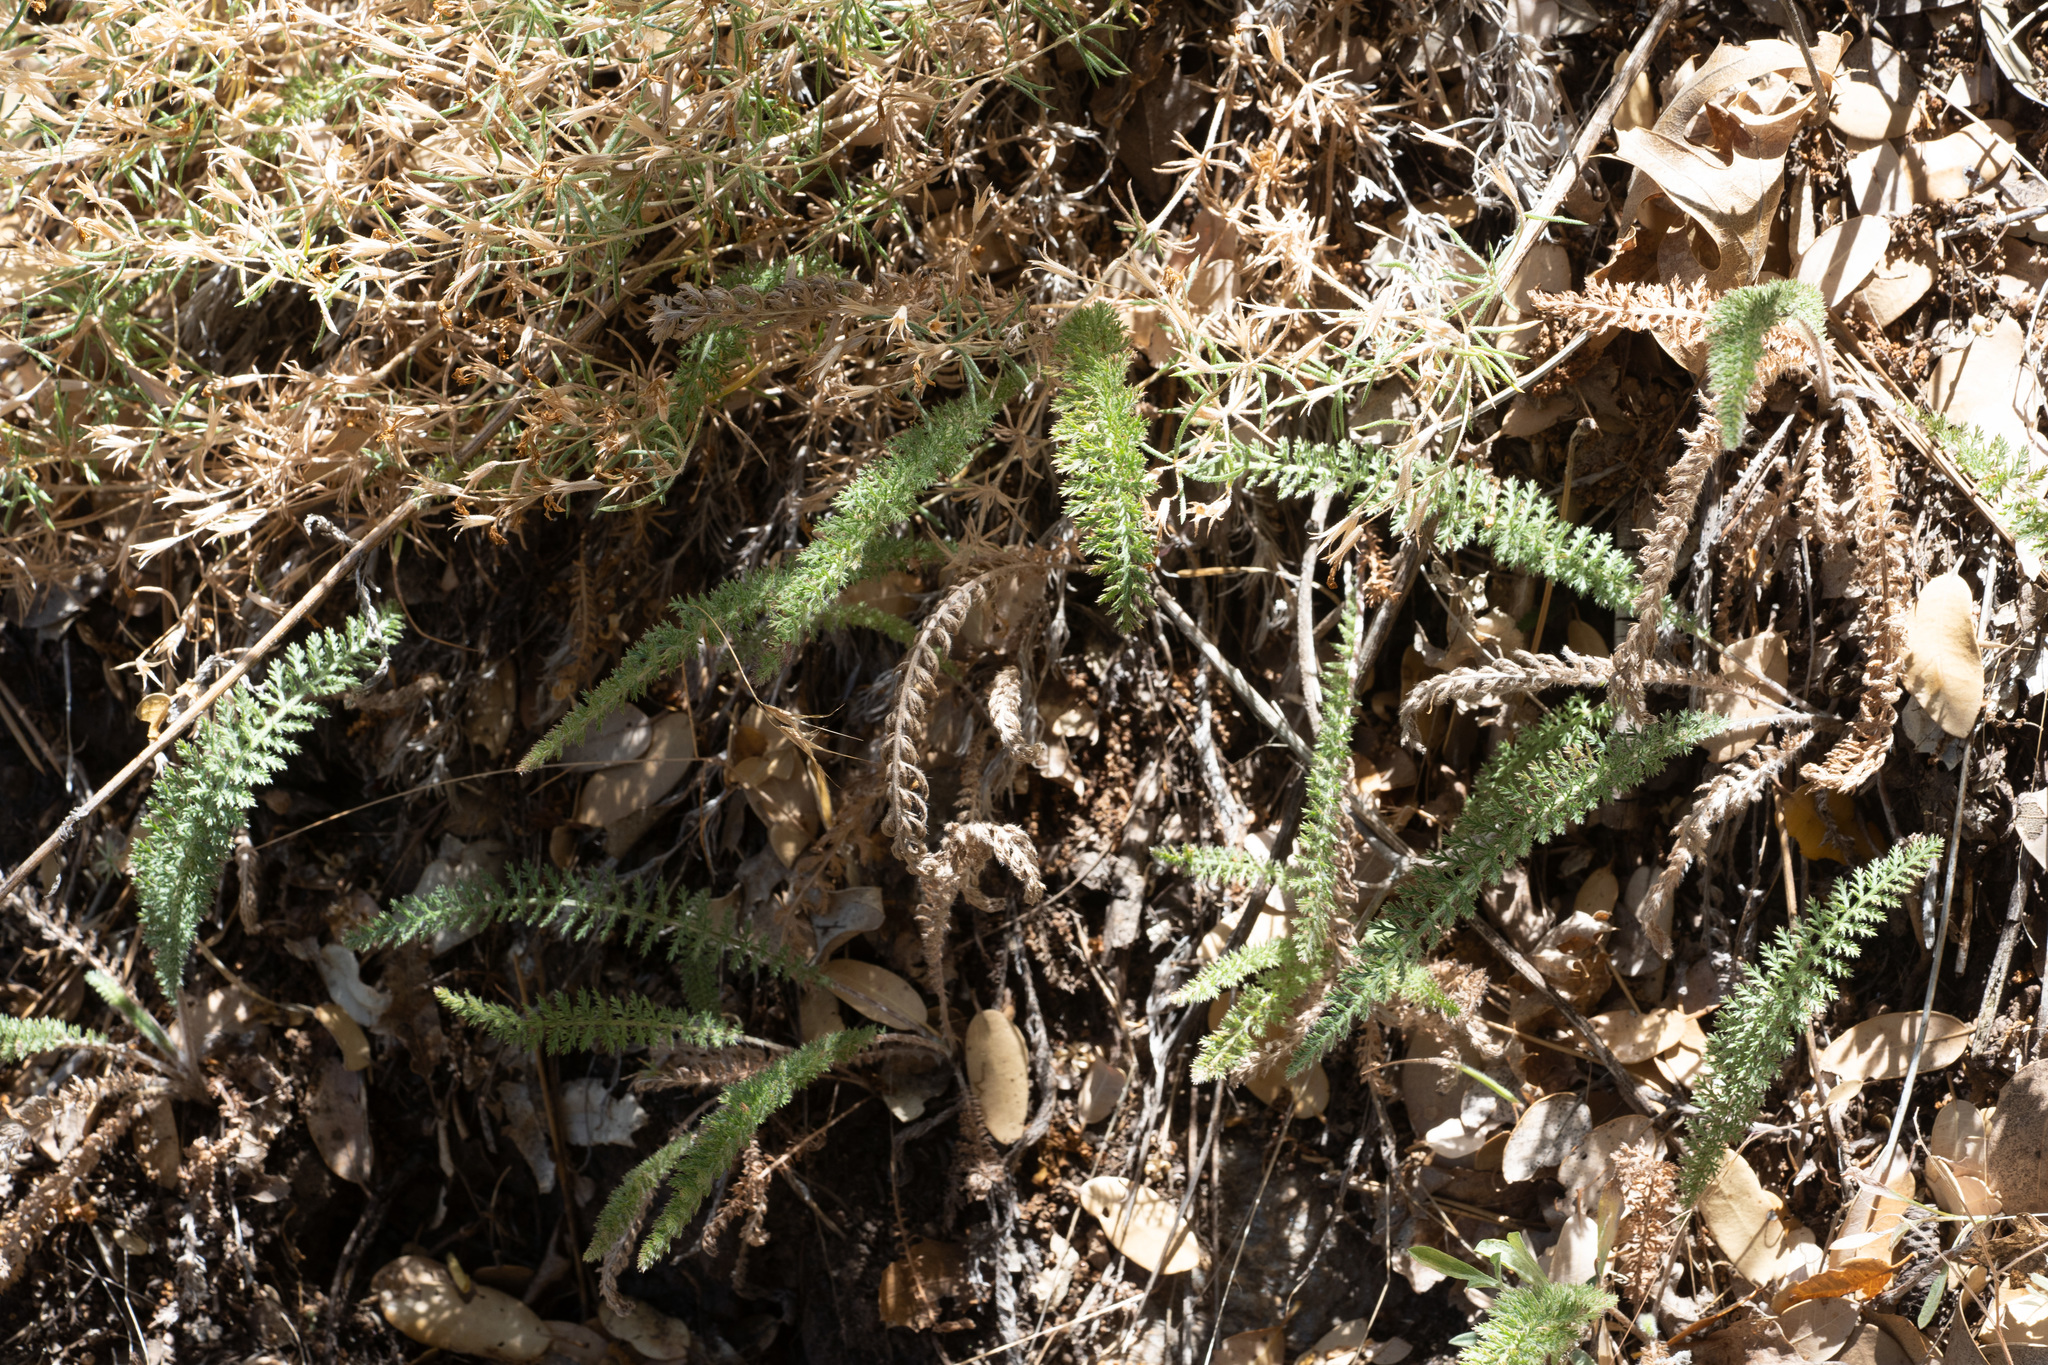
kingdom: Plantae
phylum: Tracheophyta
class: Magnoliopsida
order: Asterales
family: Asteraceae
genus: Achillea
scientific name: Achillea millefolium
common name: Yarrow
